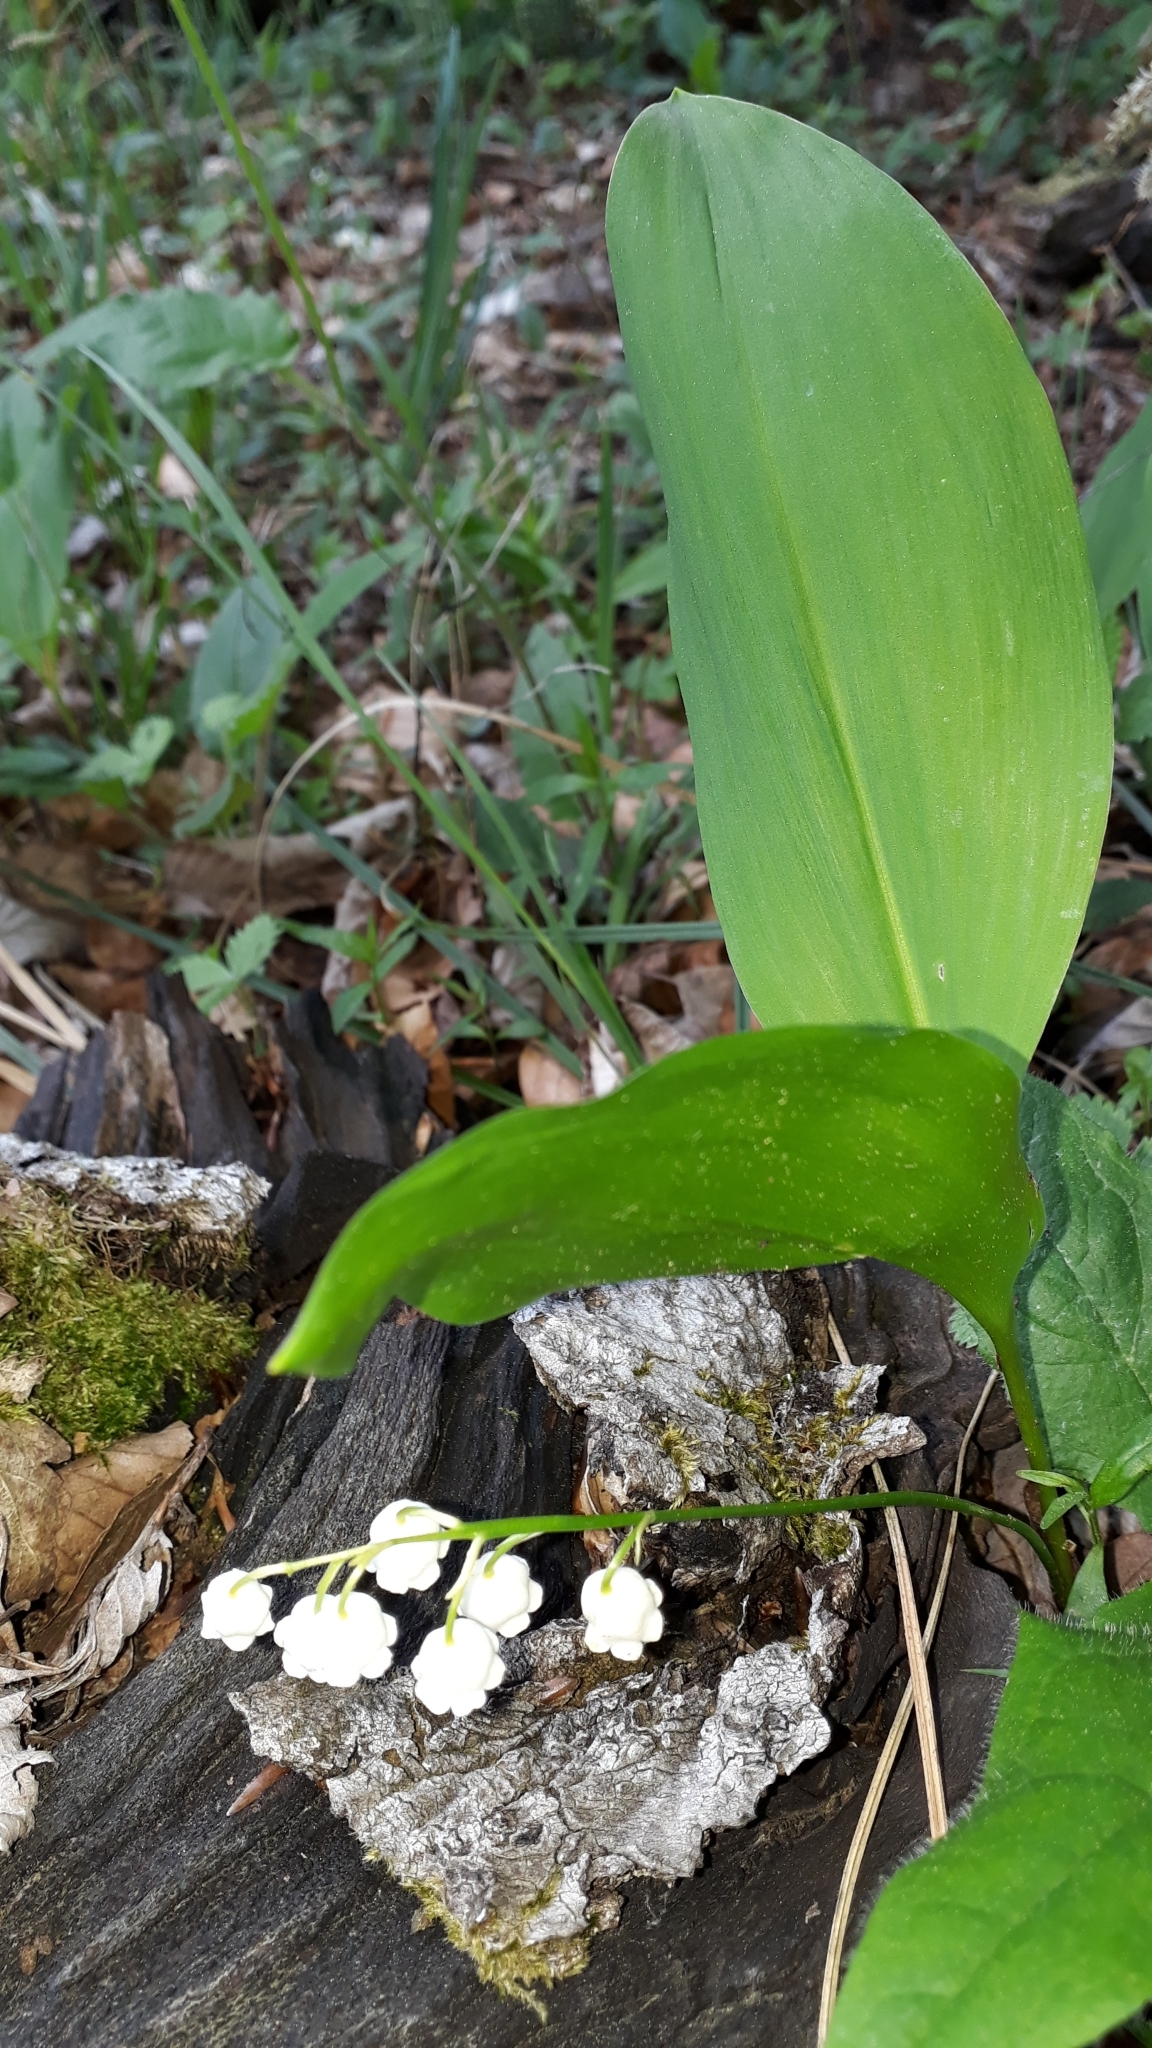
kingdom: Plantae
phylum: Tracheophyta
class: Liliopsida
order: Asparagales
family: Asparagaceae
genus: Convallaria
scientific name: Convallaria majalis
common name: Lily-of-the-valley
